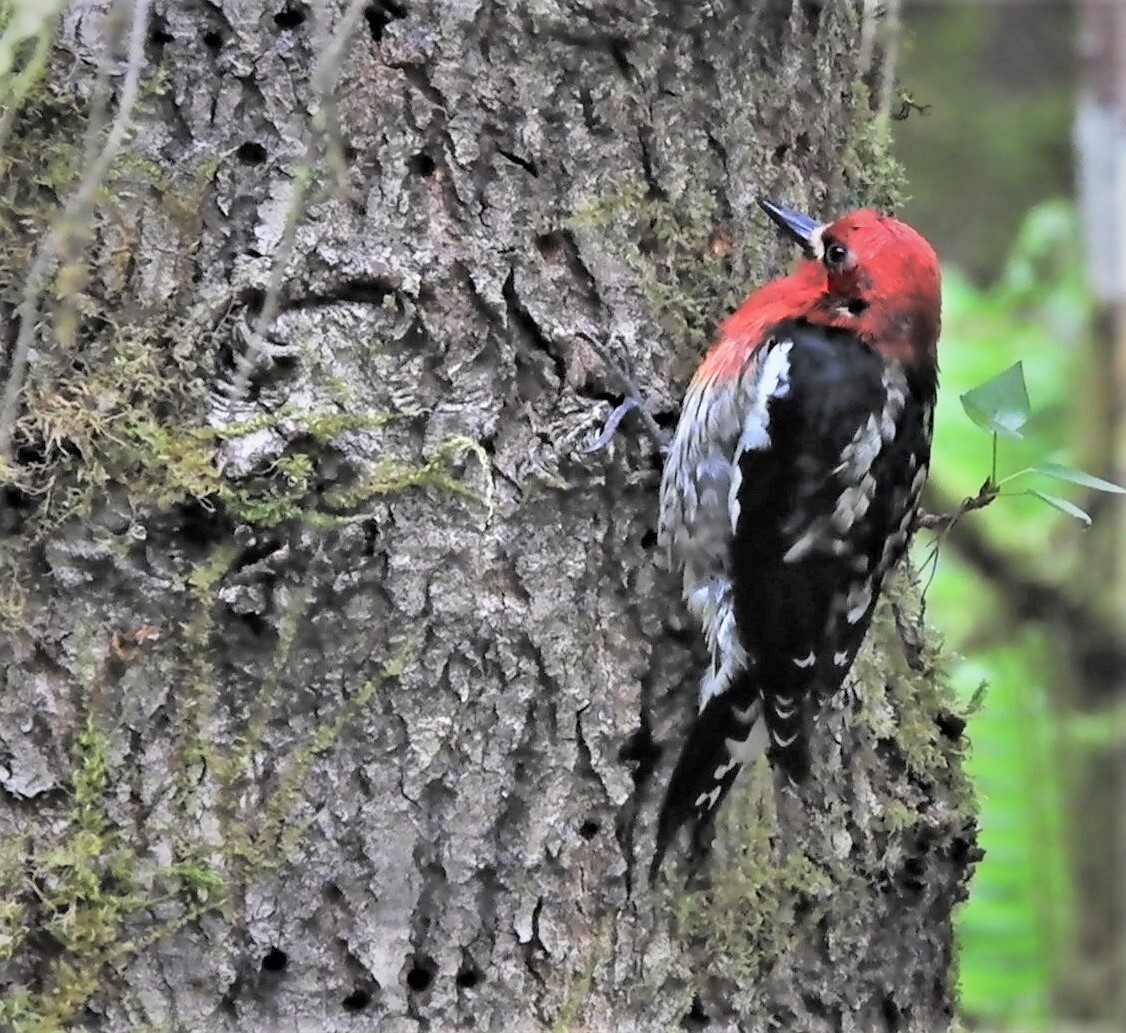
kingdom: Animalia
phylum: Chordata
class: Aves
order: Piciformes
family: Picidae
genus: Sphyrapicus
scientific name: Sphyrapicus ruber
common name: Red-breasted sapsucker
